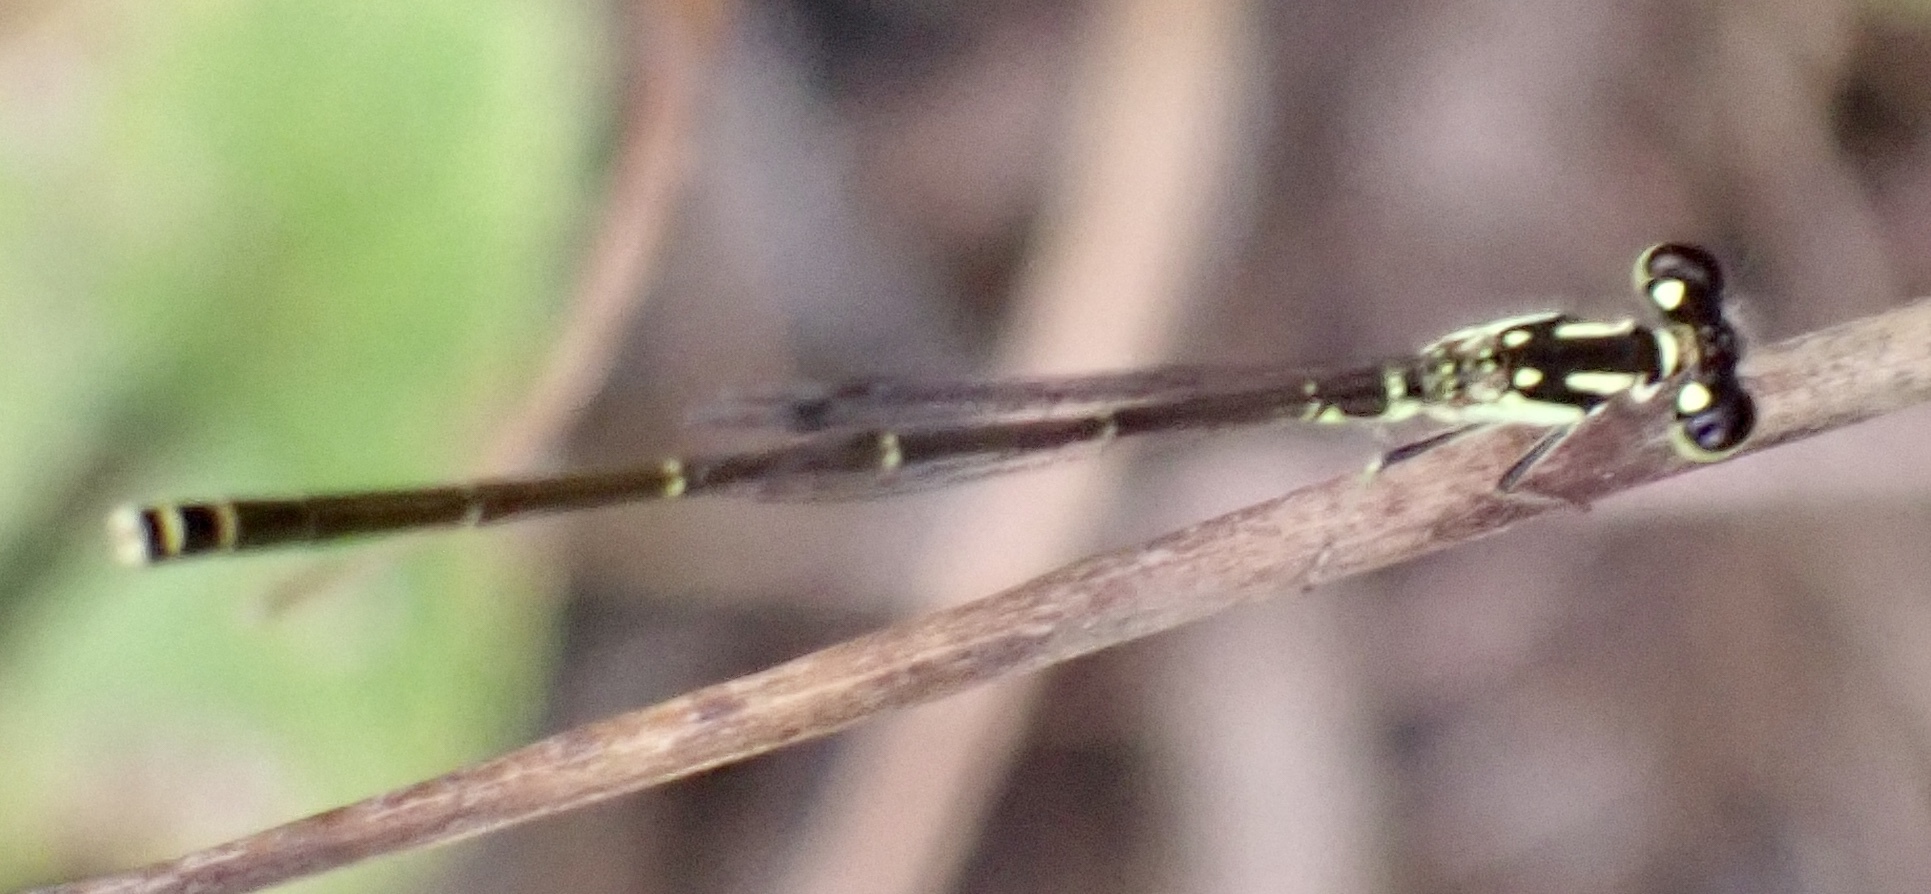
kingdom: Animalia
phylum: Arthropoda
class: Insecta
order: Odonata
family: Coenagrionidae
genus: Ischnura
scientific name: Ischnura posita
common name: Fragile forktail
